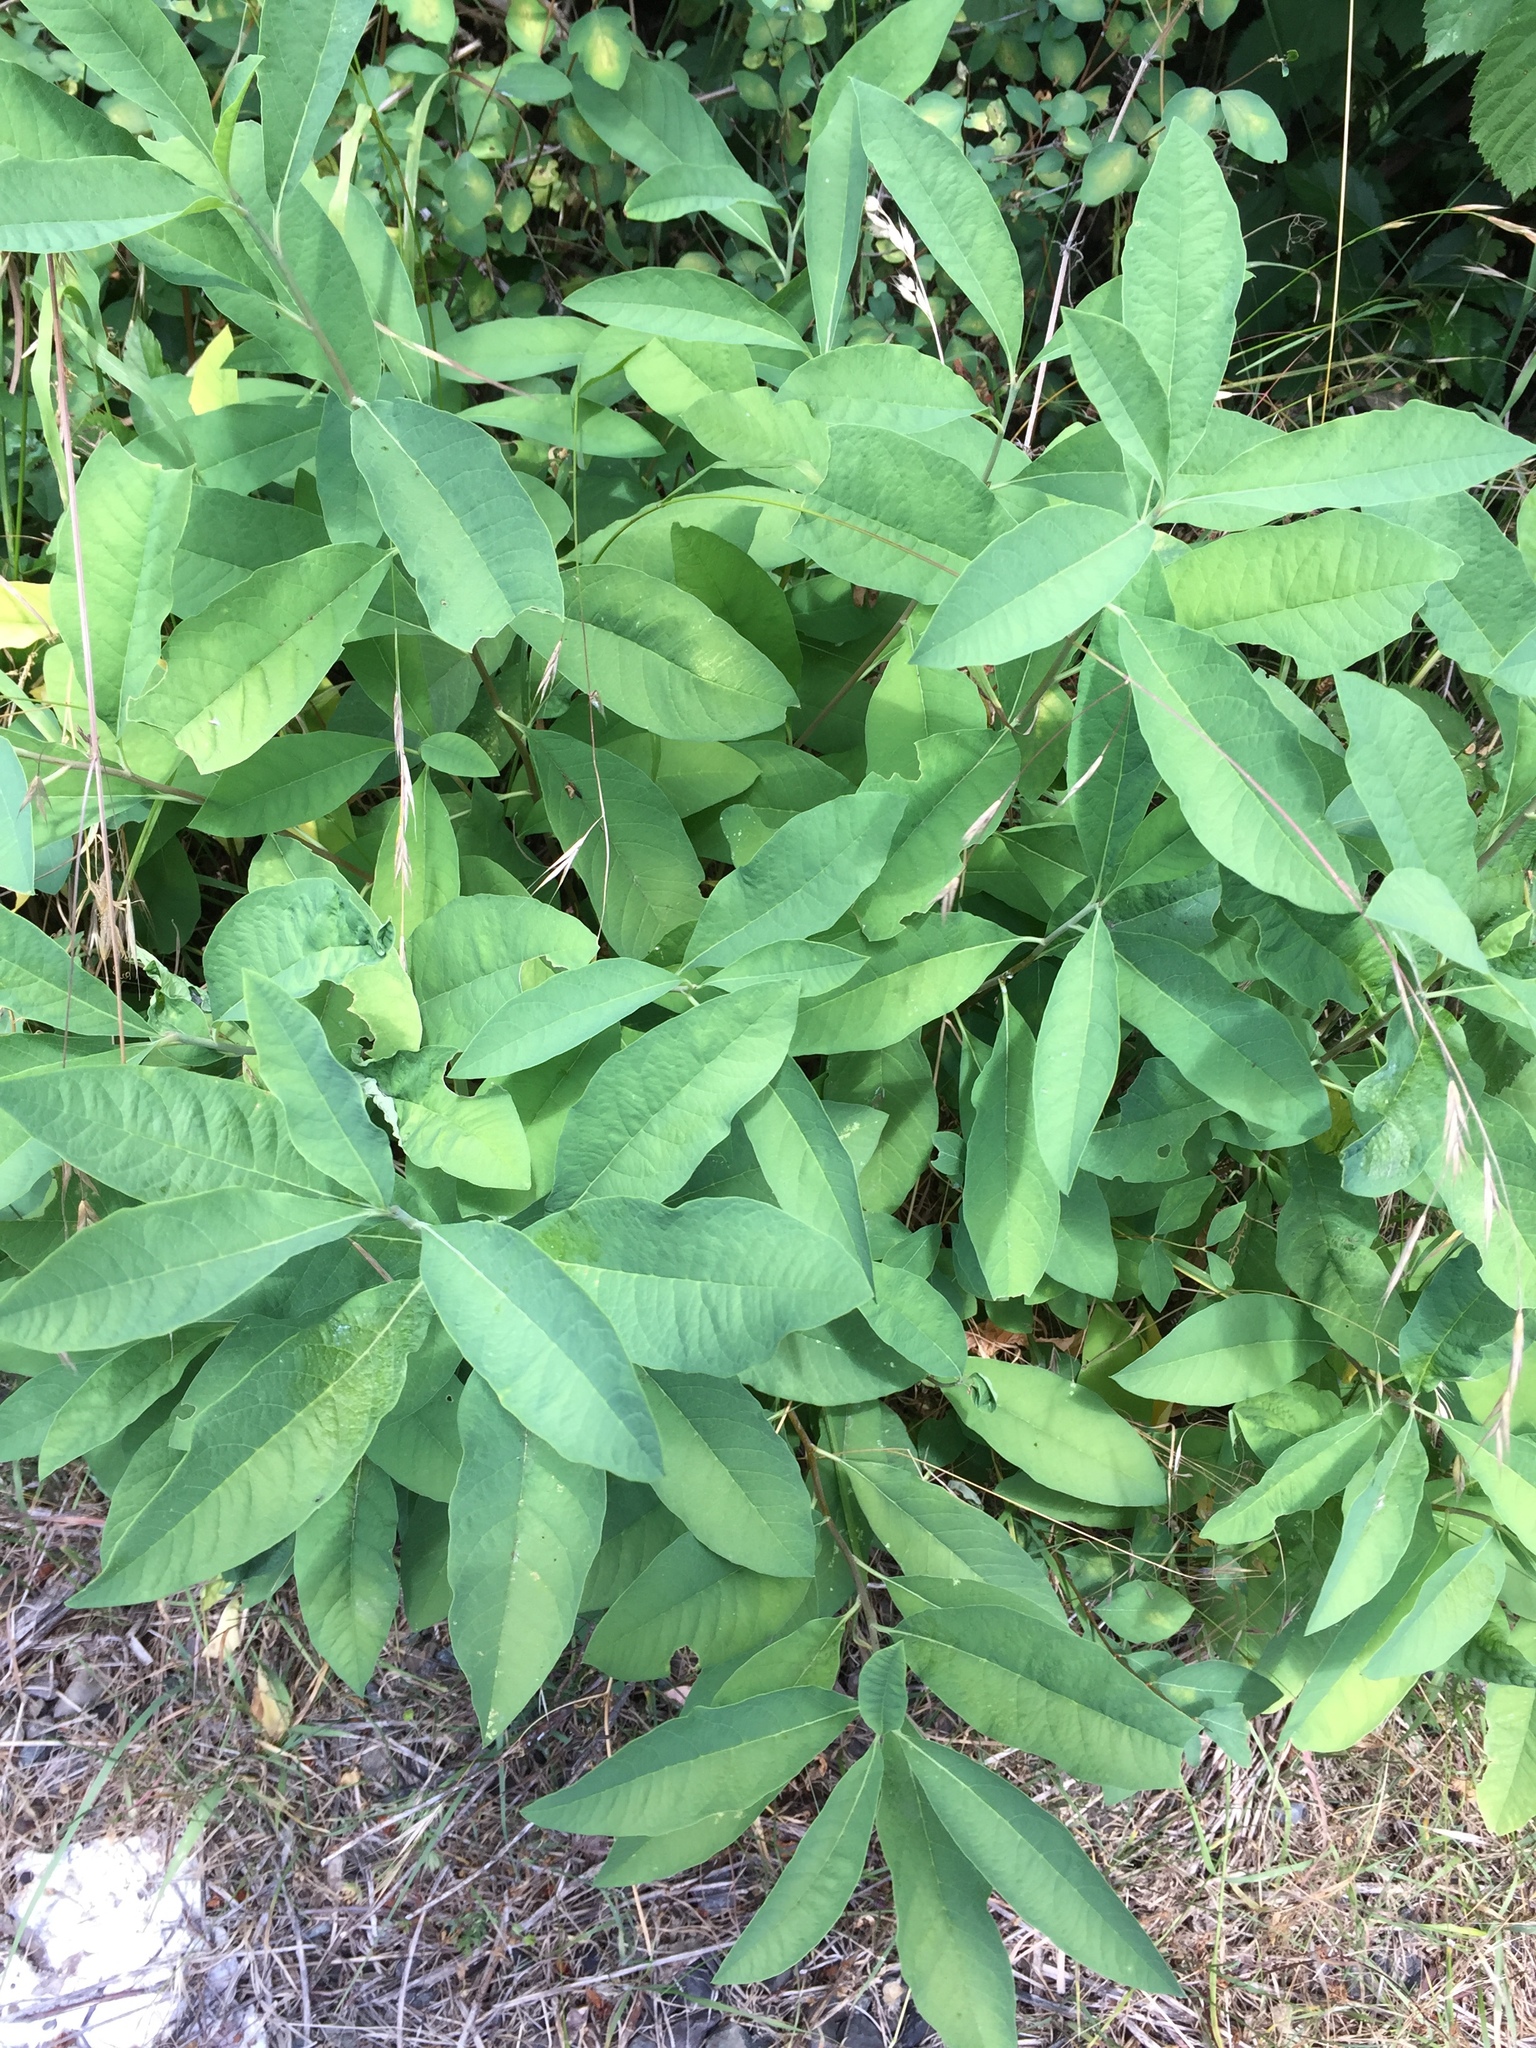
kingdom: Plantae
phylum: Tracheophyta
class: Magnoliopsida
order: Rosales
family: Rosaceae
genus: Oemleria
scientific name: Oemleria cerasiformis
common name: Osoberry
